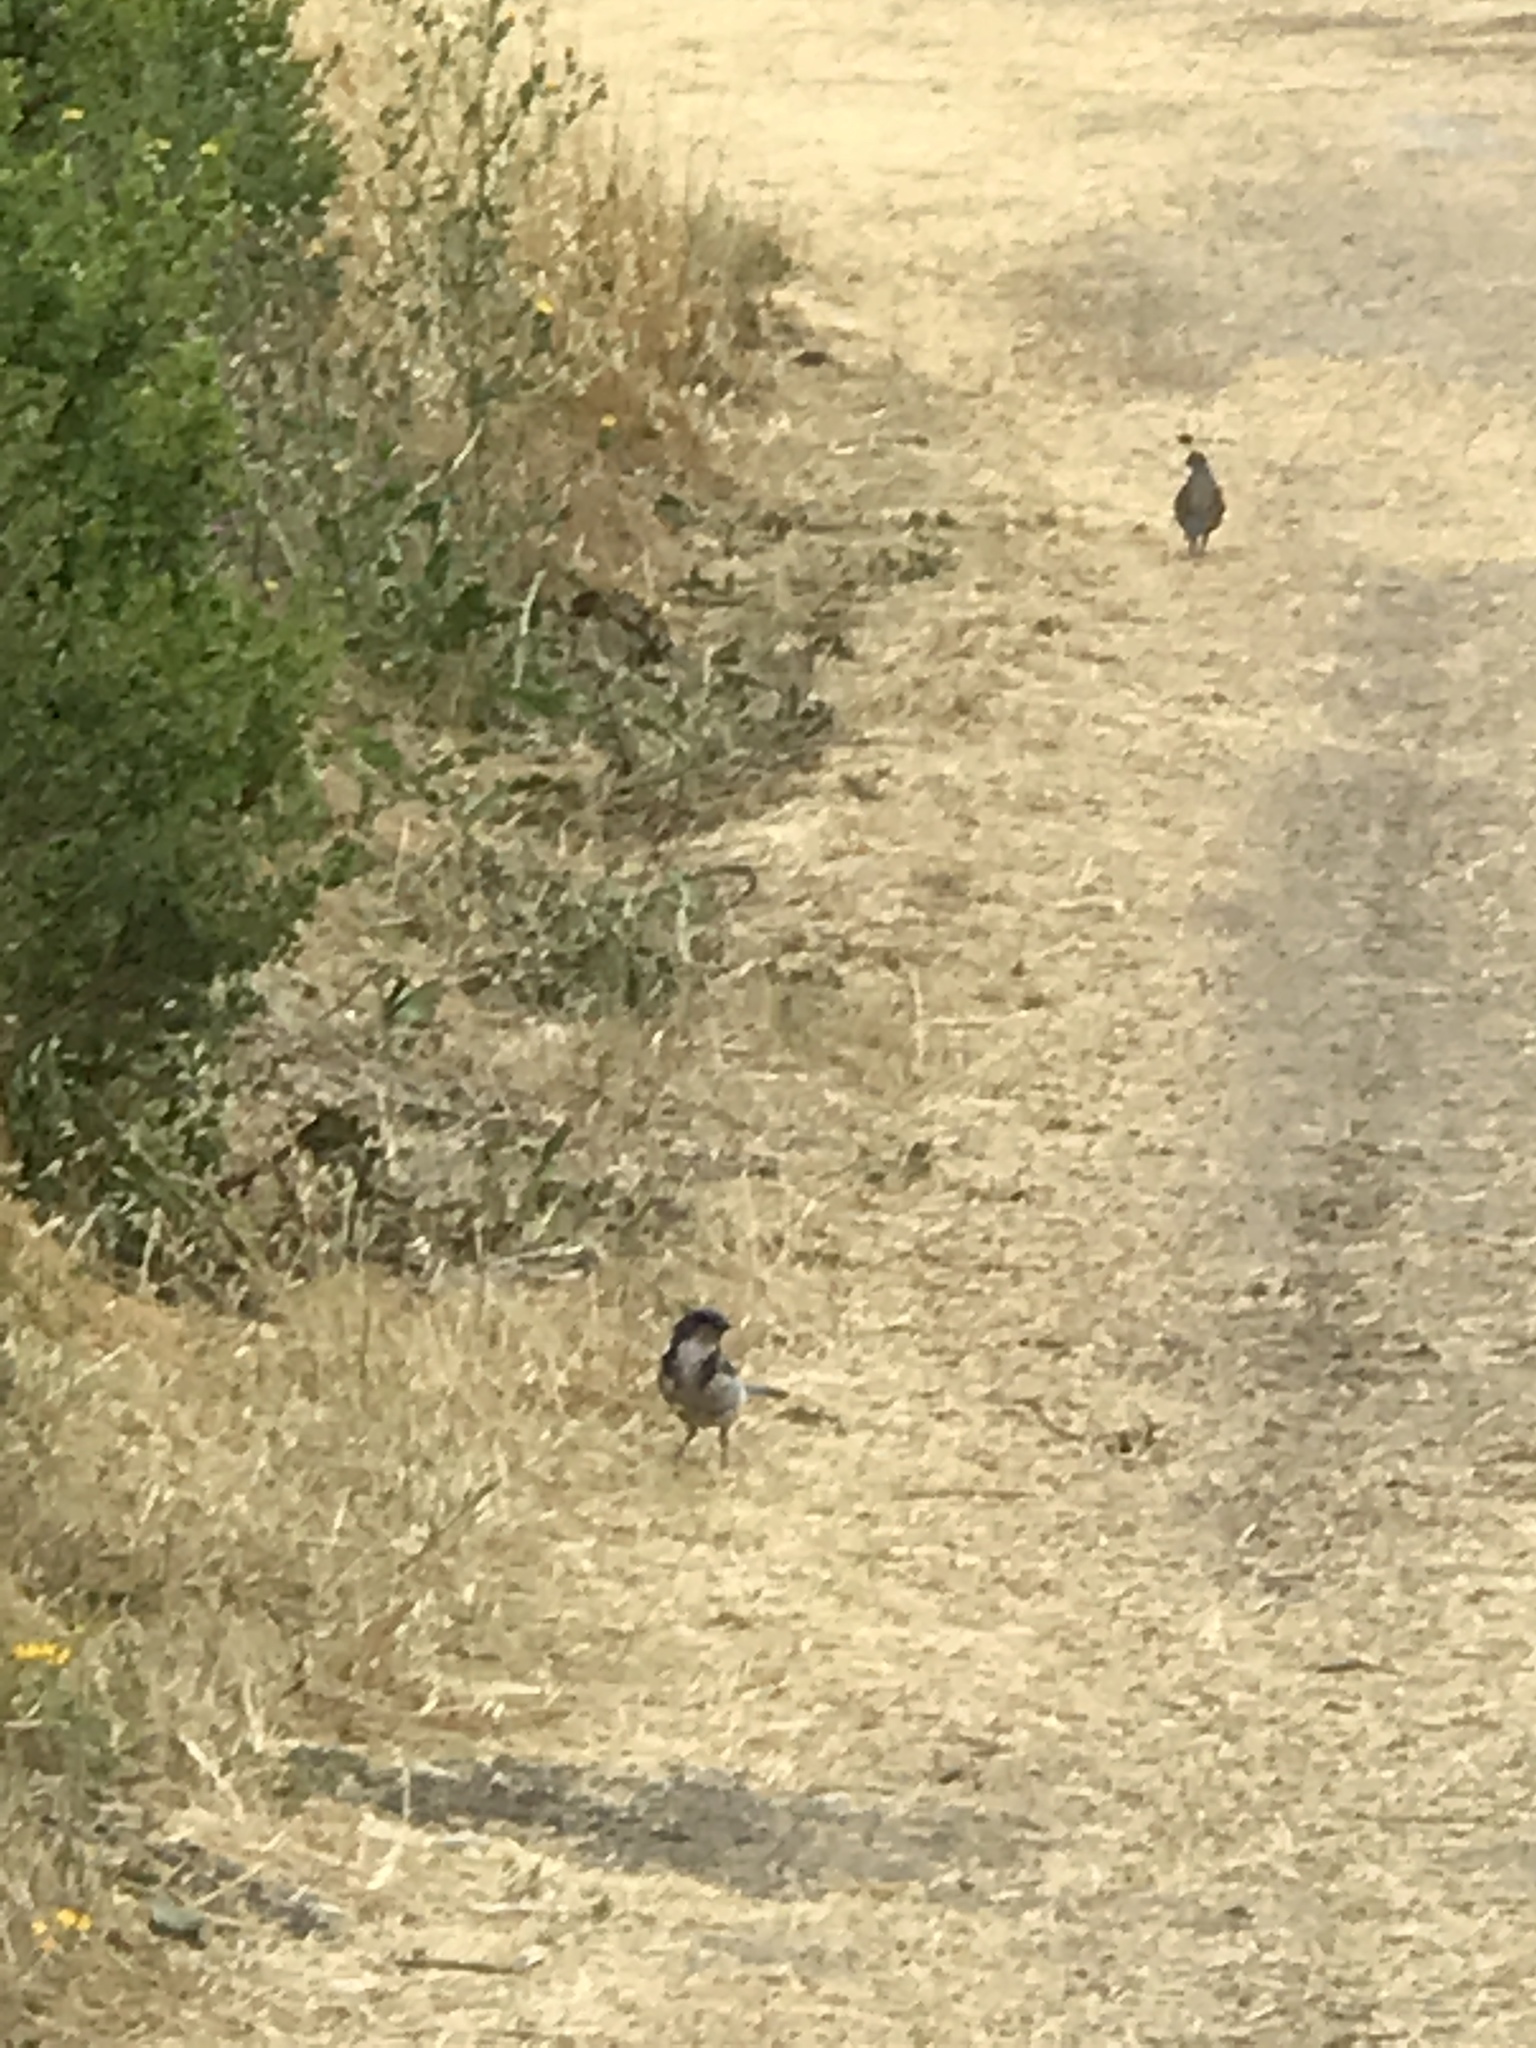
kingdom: Animalia
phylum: Chordata
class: Aves
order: Galliformes
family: Odontophoridae
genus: Callipepla
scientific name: Callipepla californica
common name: California quail
